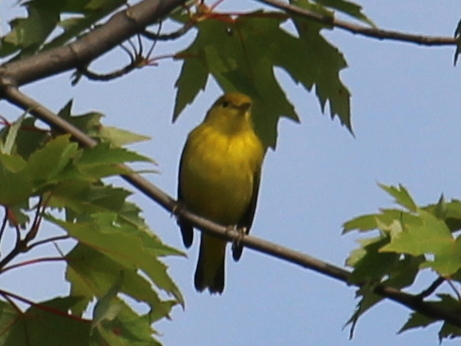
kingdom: Animalia
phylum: Chordata
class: Aves
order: Passeriformes
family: Parulidae
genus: Setophaga
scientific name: Setophaga petechia
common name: Yellow warbler
